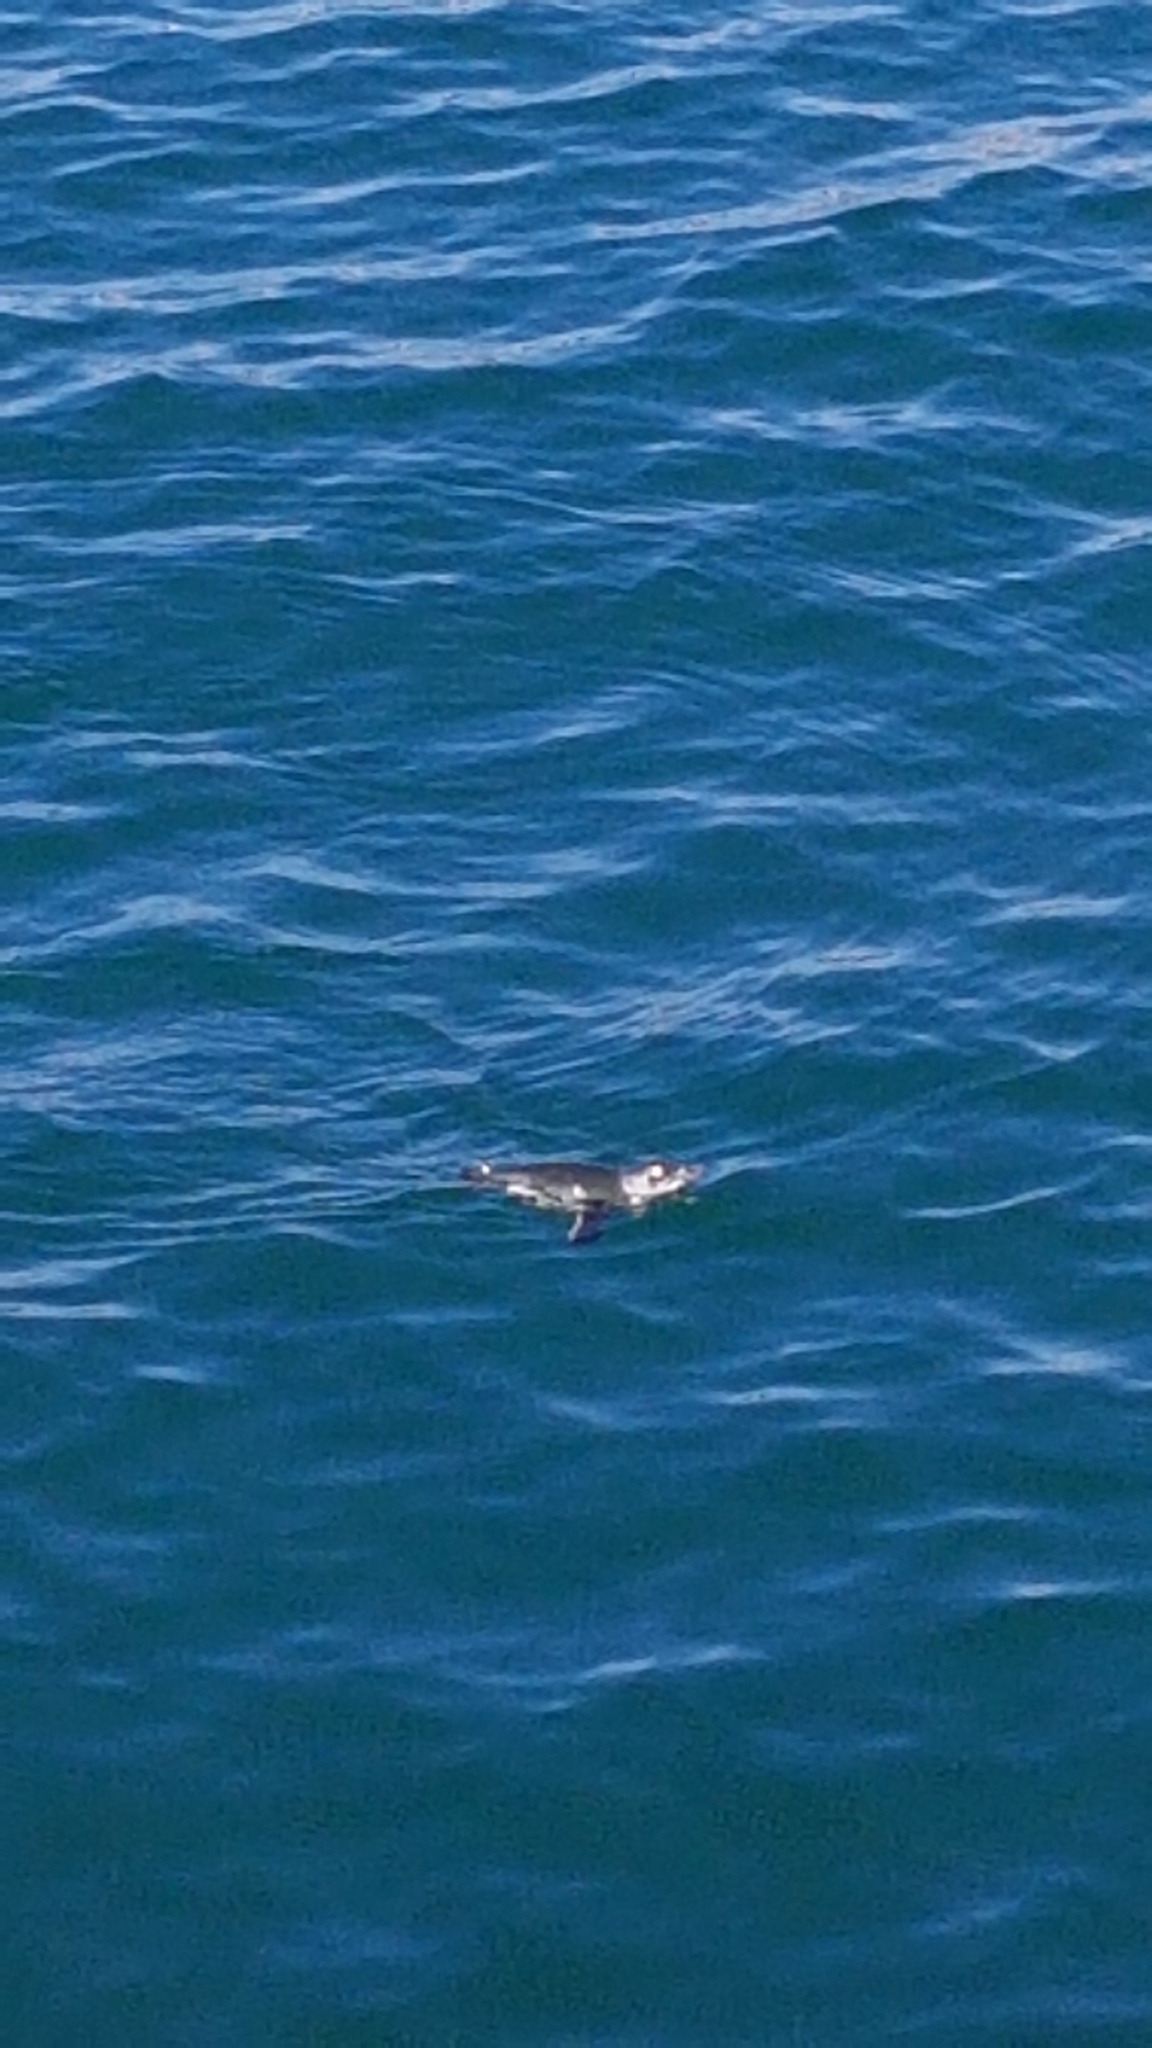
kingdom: Animalia
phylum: Chordata
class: Aves
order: Sphenisciformes
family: Spheniscidae
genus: Eudyptula
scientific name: Eudyptula minor
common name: Little penguin
